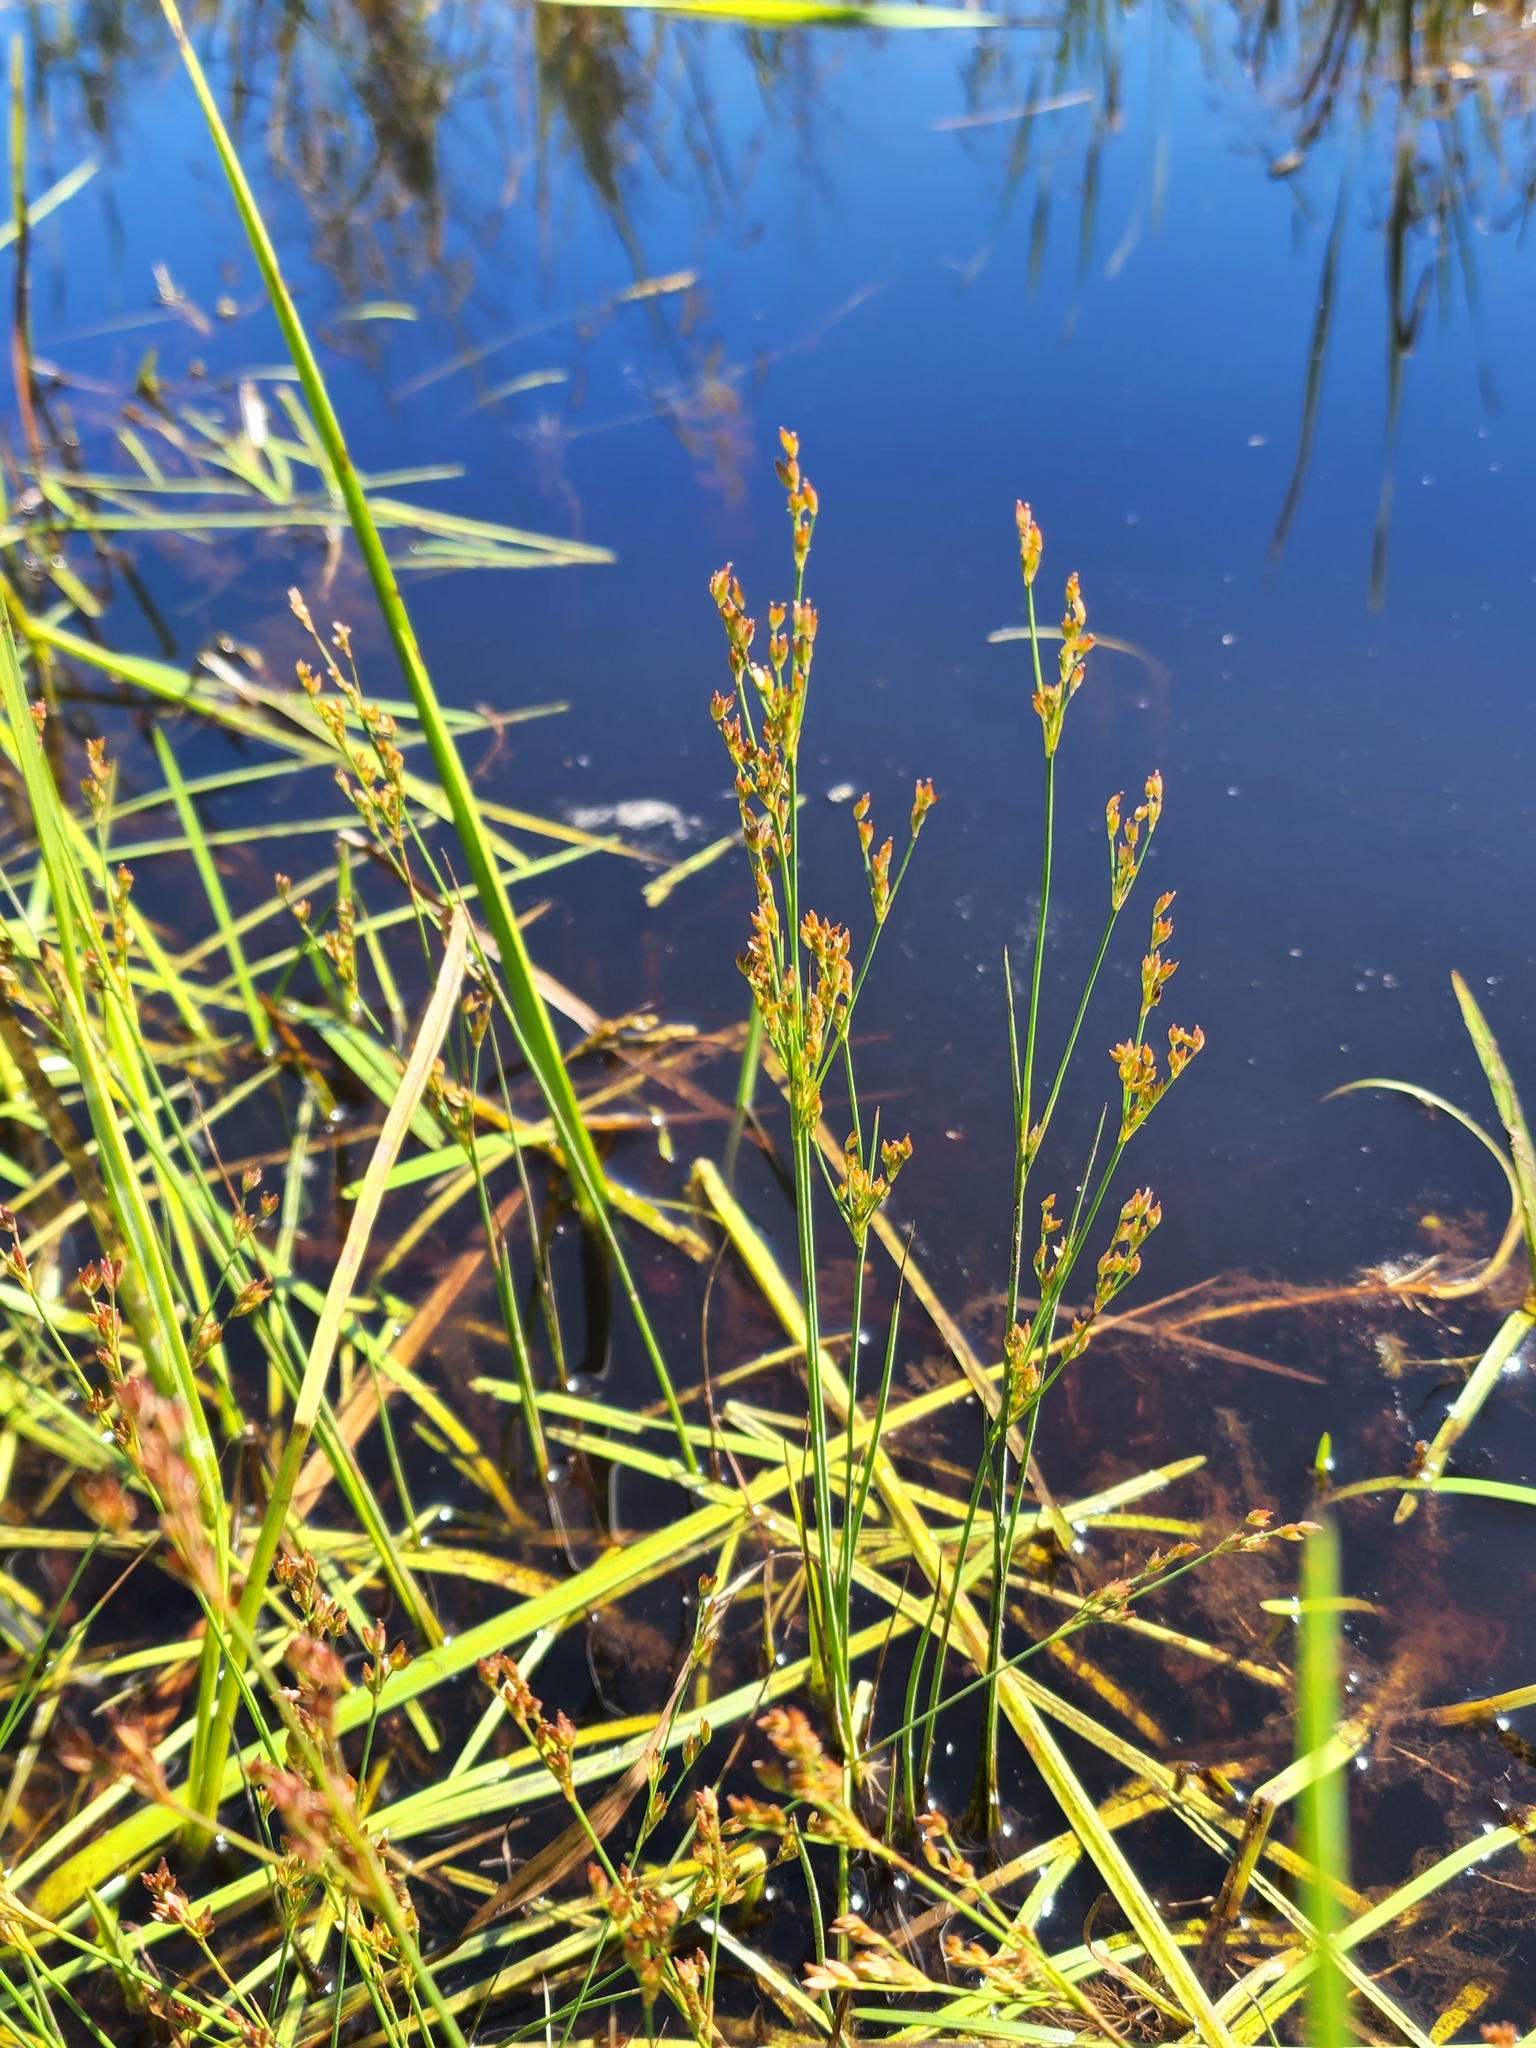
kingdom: Plantae
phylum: Tracheophyta
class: Liliopsida
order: Poales
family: Juncaceae
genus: Juncus
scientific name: Juncus tweedyi
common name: Narrow-panicled rush
